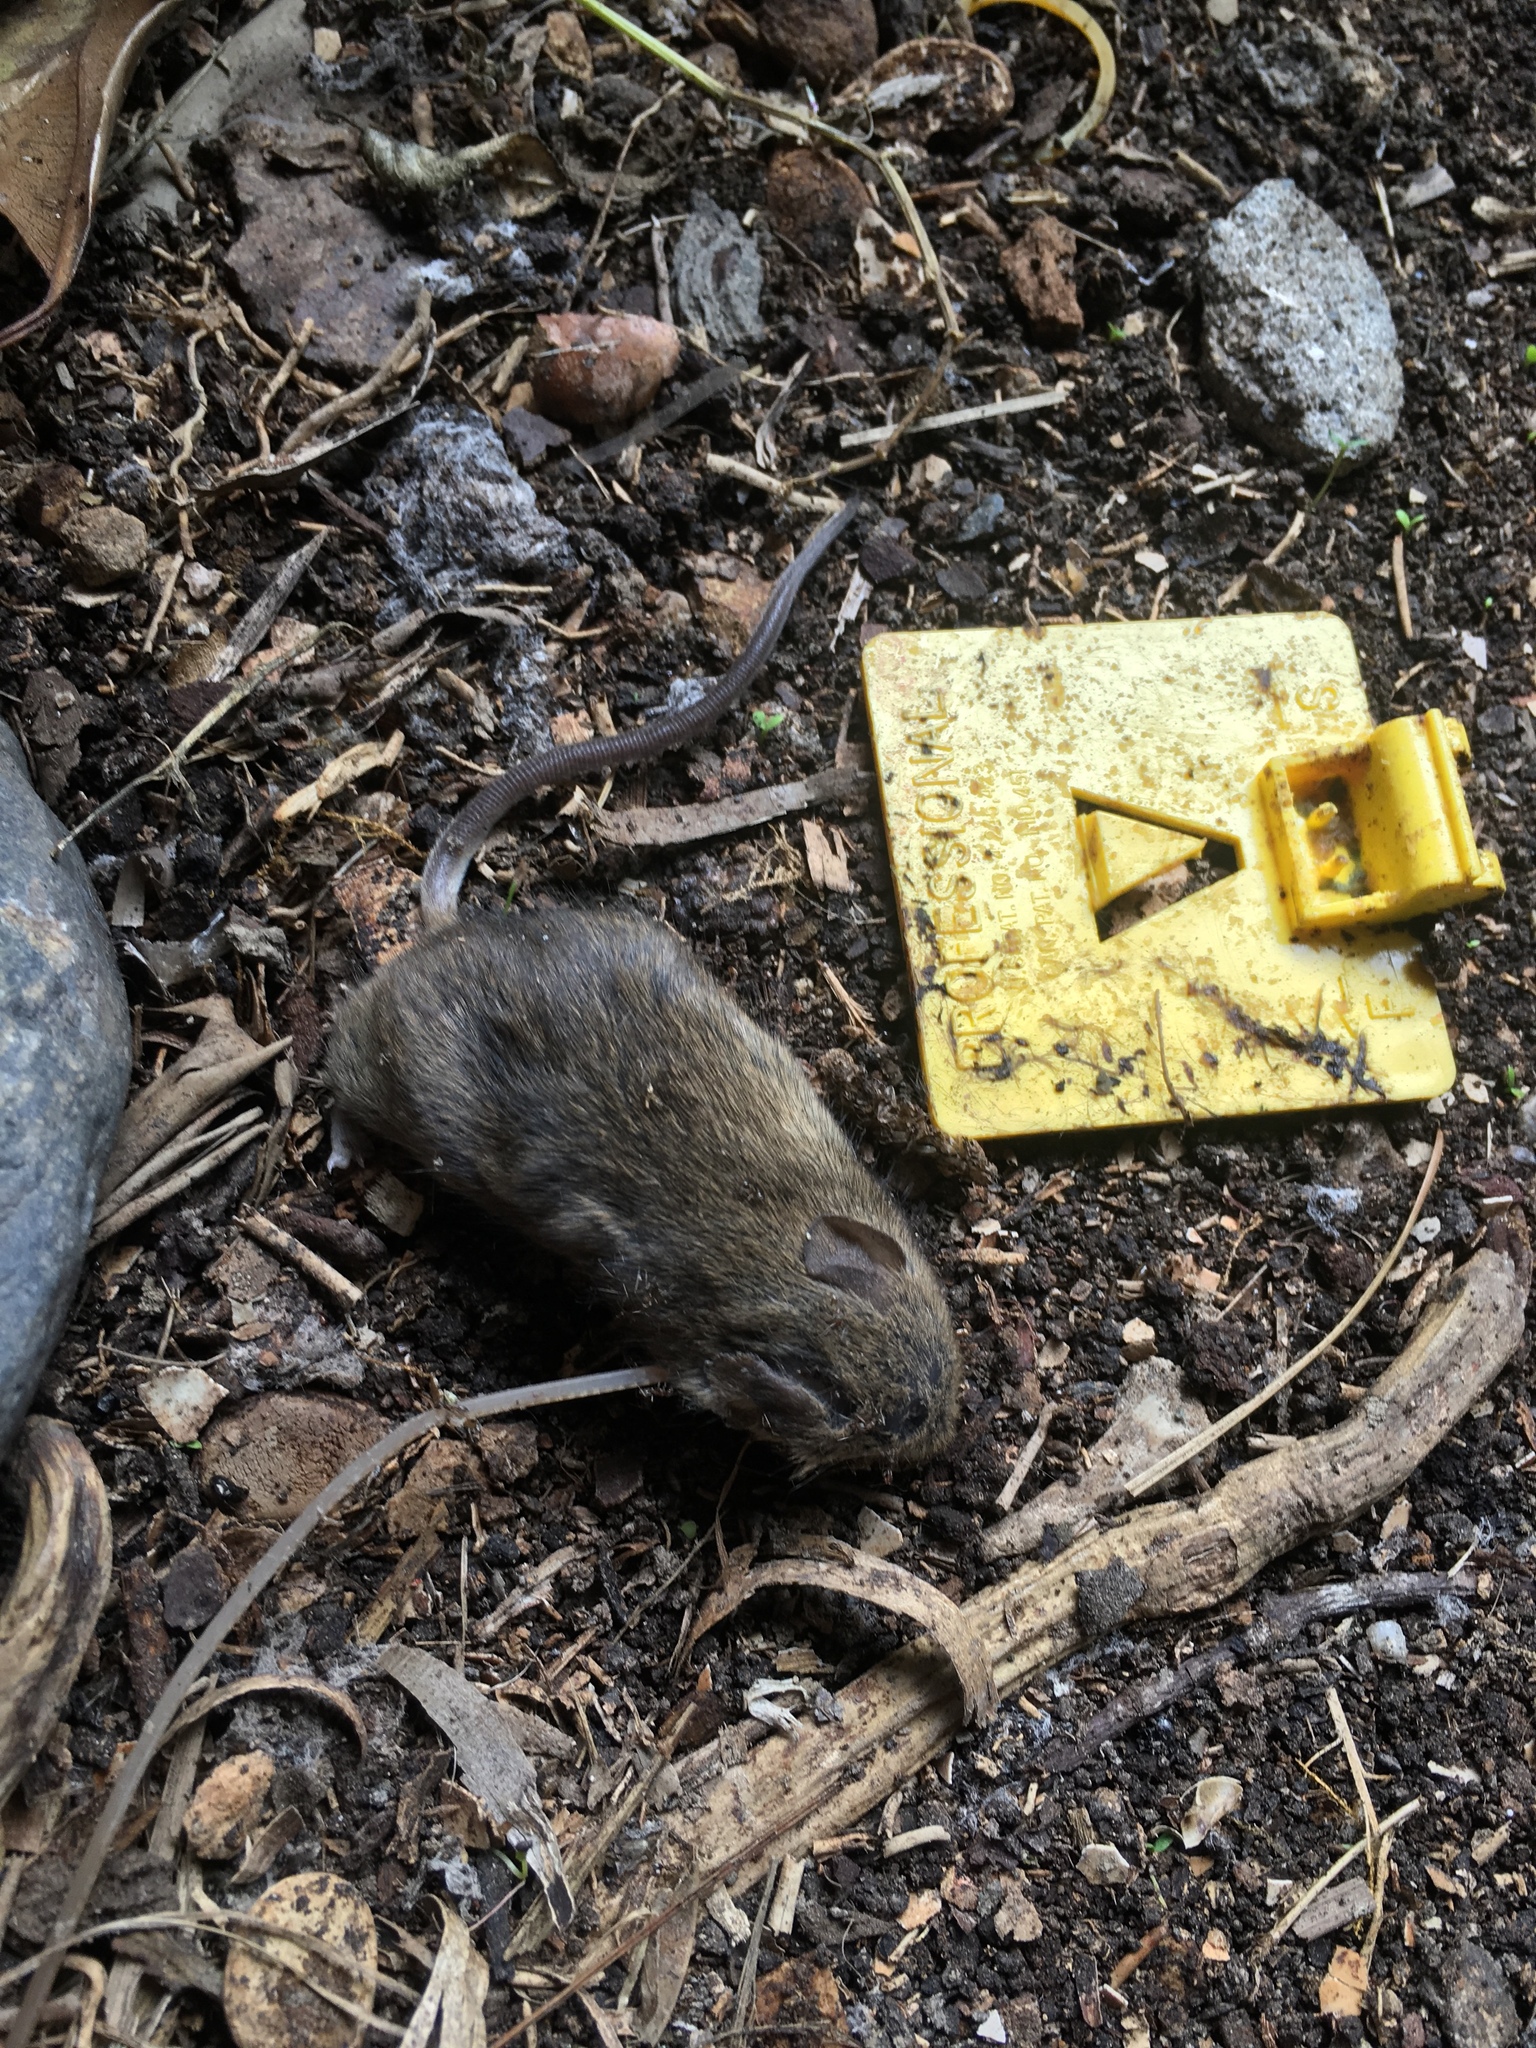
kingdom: Animalia
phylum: Chordata
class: Mammalia
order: Rodentia
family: Muridae
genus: Mus
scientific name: Mus musculus
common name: House mouse
